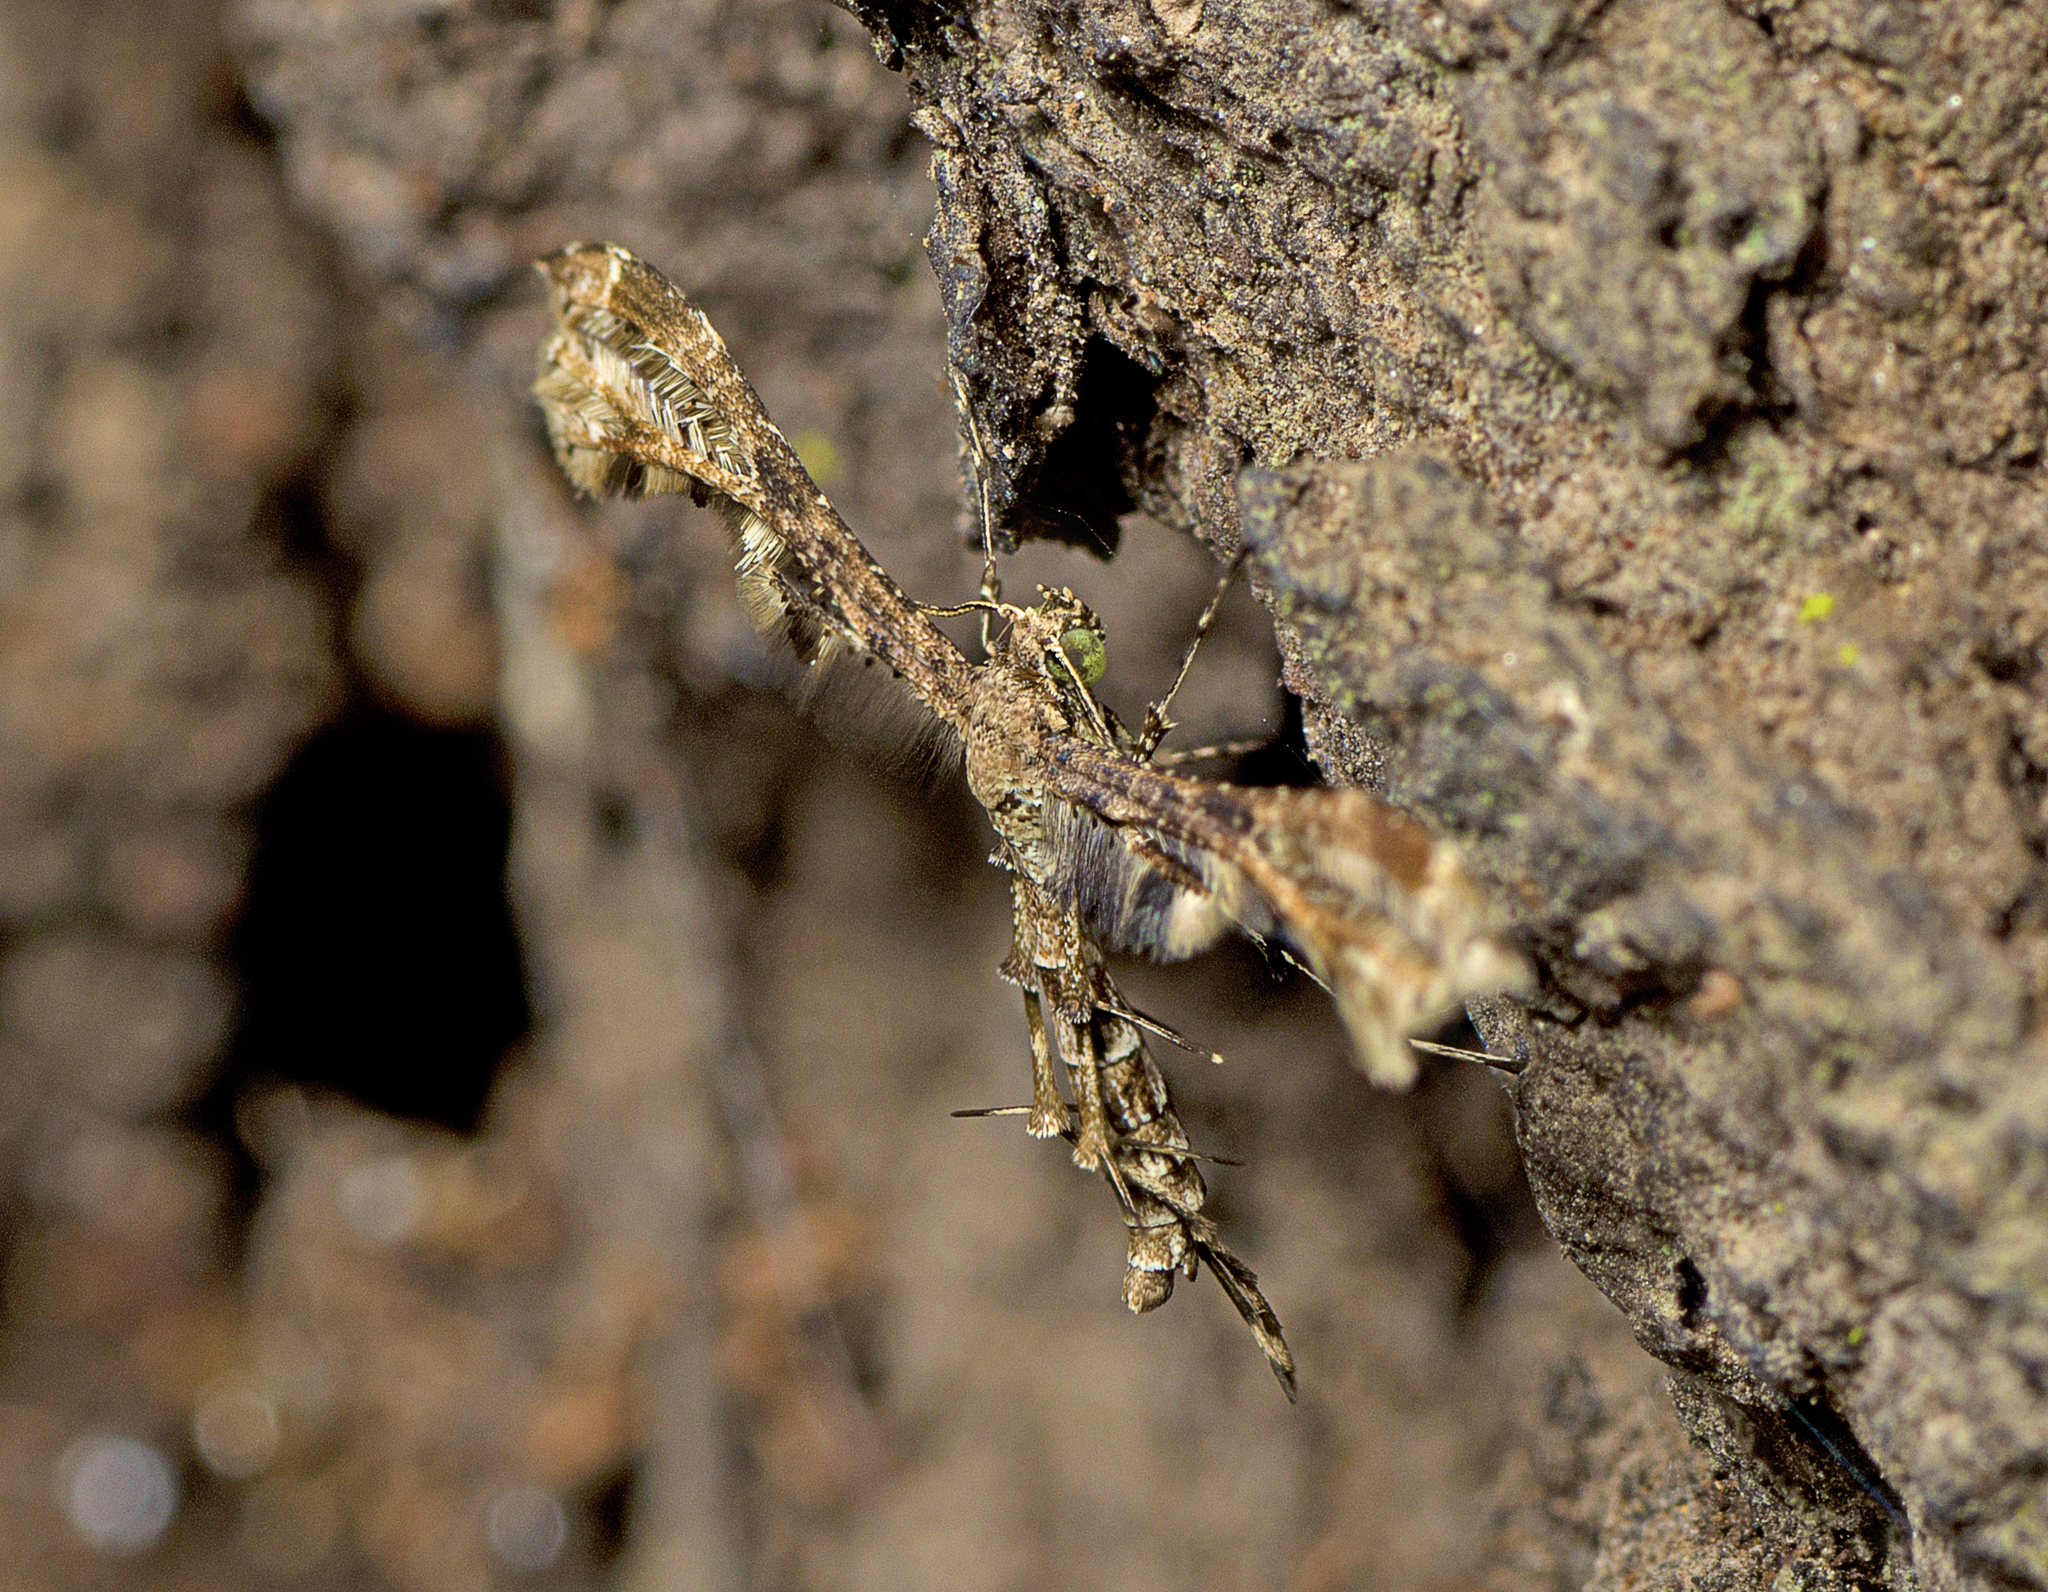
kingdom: Animalia
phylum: Arthropoda
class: Insecta
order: Lepidoptera
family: Pterophoridae
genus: Hexadactilia
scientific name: Hexadactilia civilis
